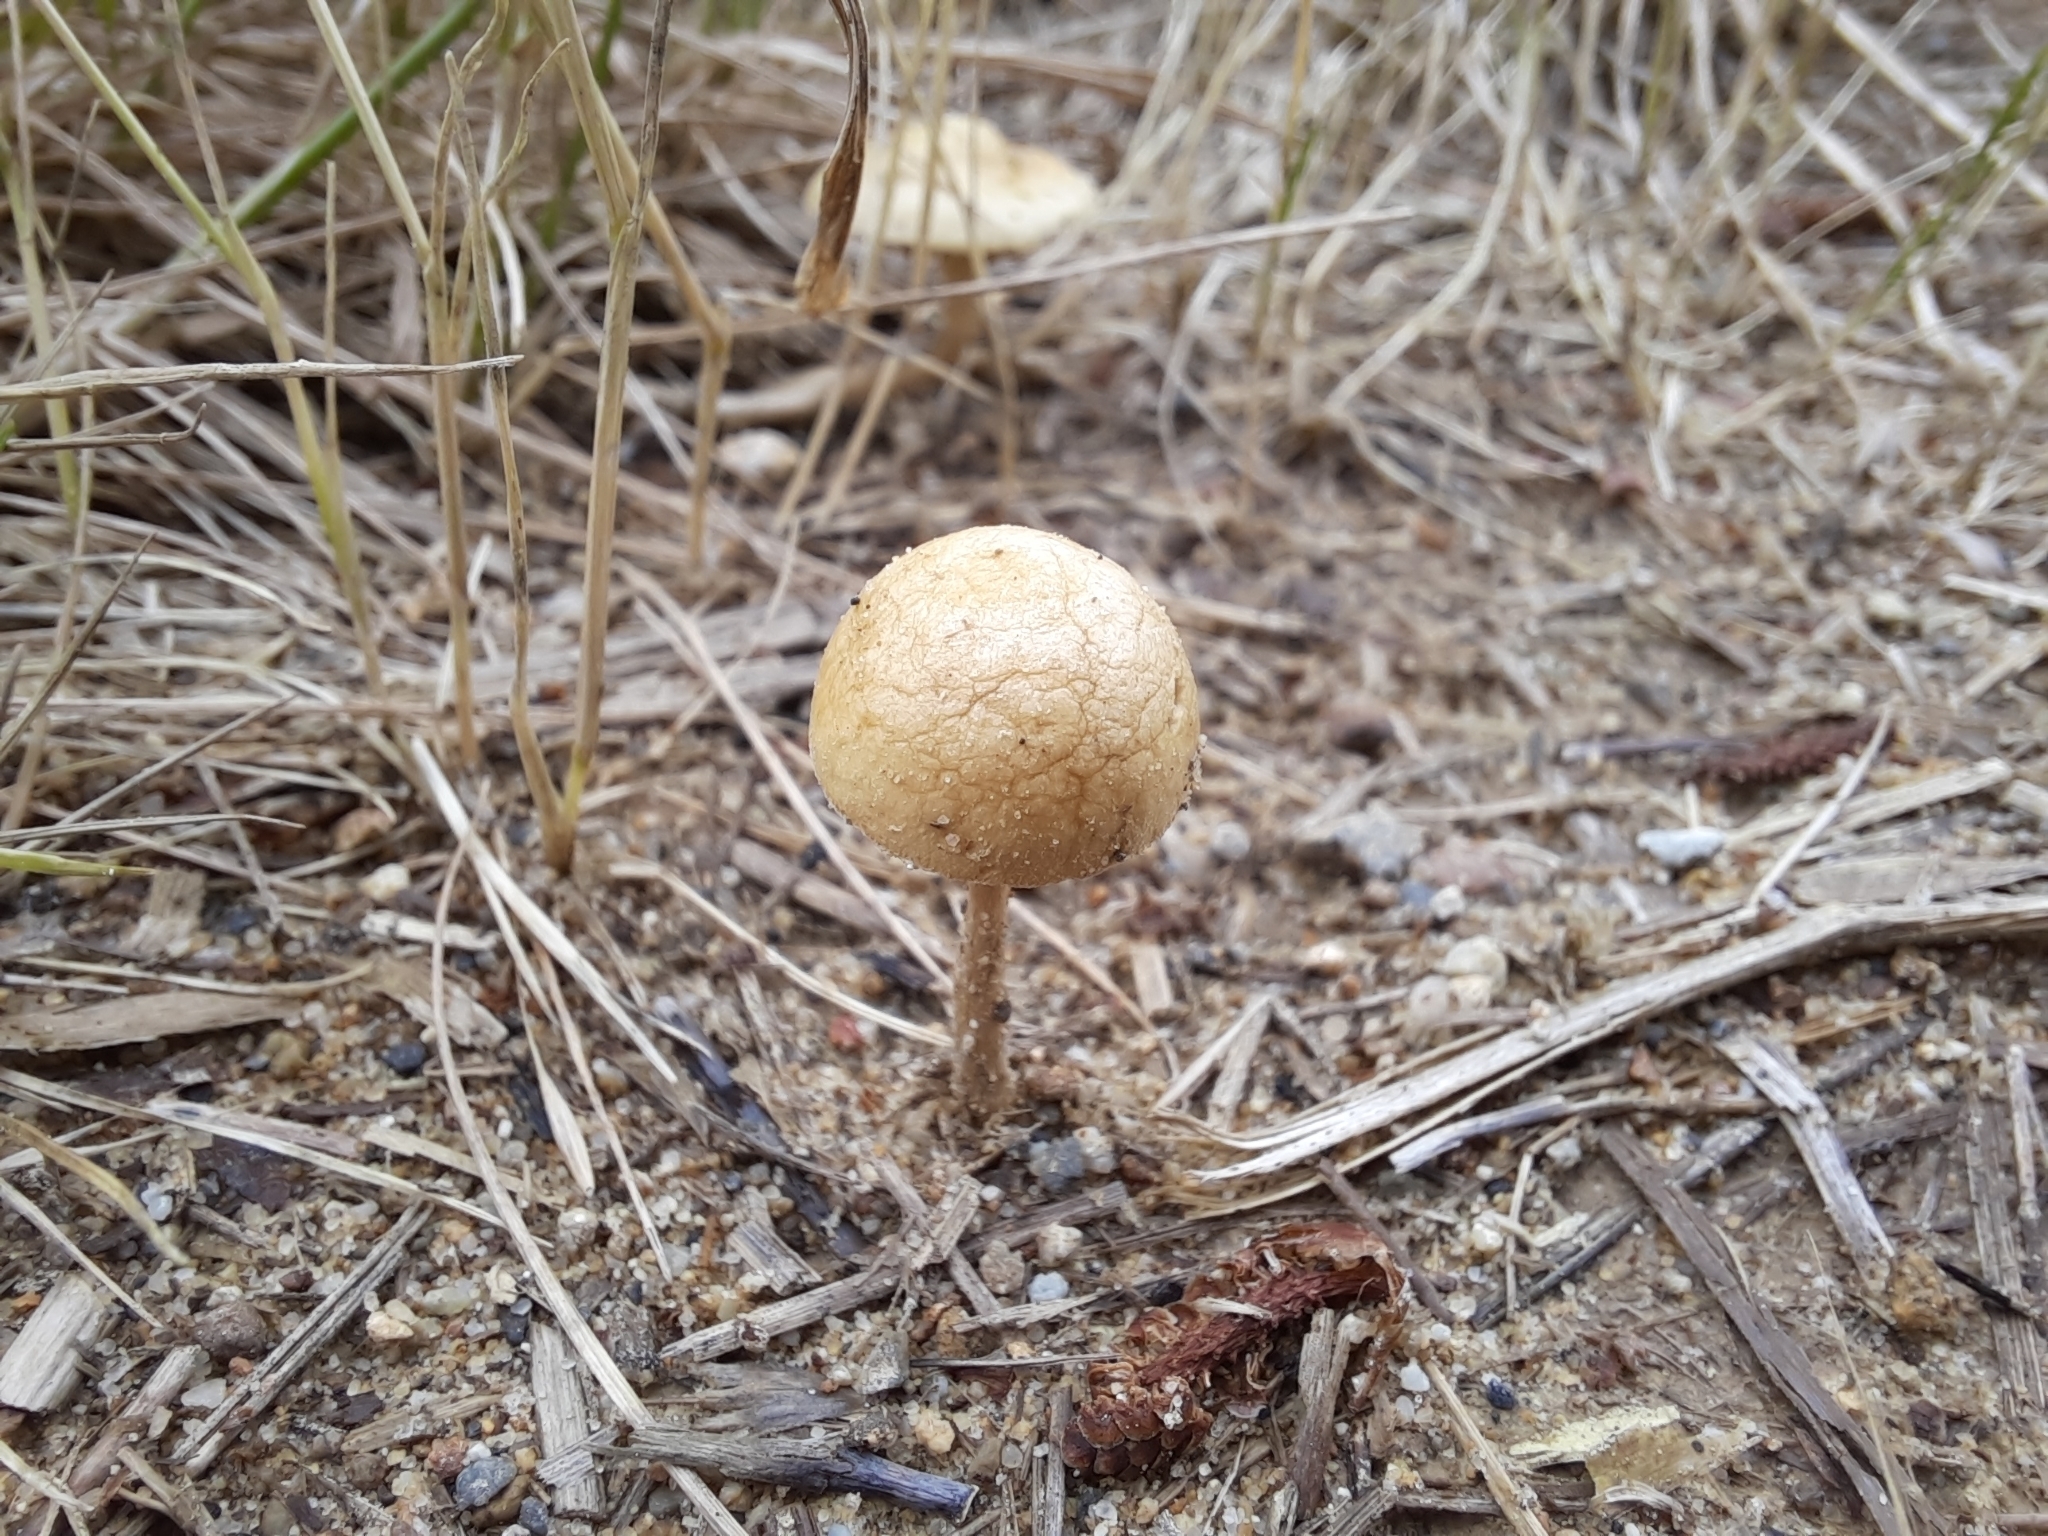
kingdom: Fungi
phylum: Basidiomycota
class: Agaricomycetes
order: Agaricales
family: Strophariaceae
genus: Agrocybe
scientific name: Agrocybe pediades
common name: Common fieldcap
